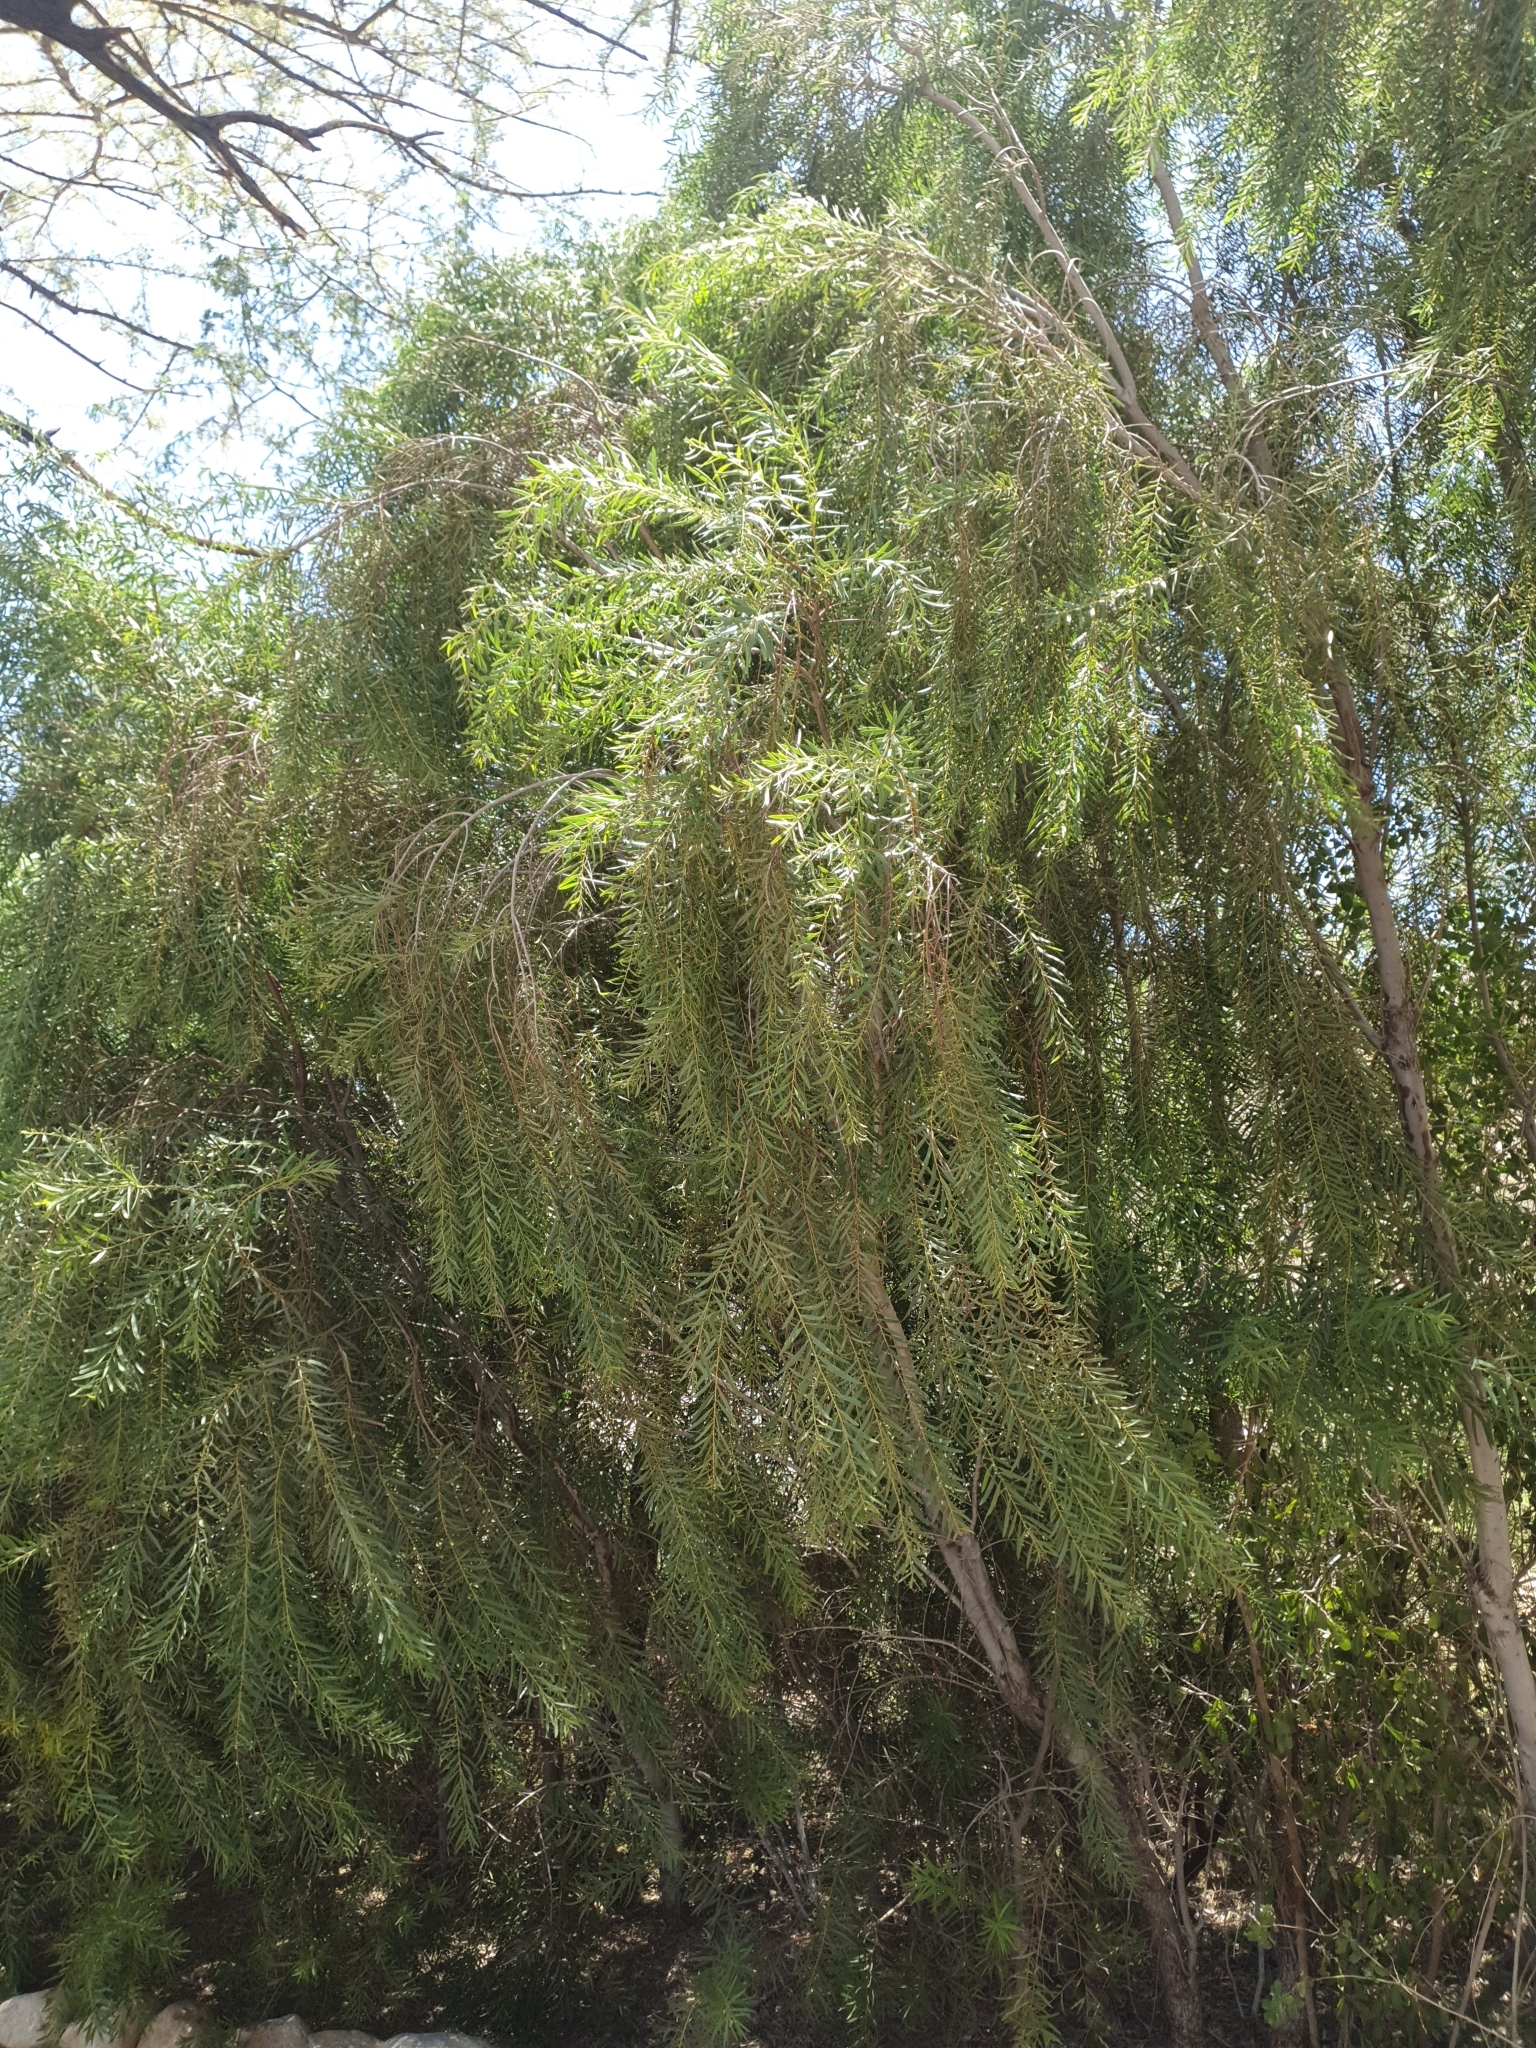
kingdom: Plantae
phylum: Tracheophyta
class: Magnoliopsida
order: Ericales
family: Ebenaceae
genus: Euclea
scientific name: Euclea pseudebenus
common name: Black ebony
